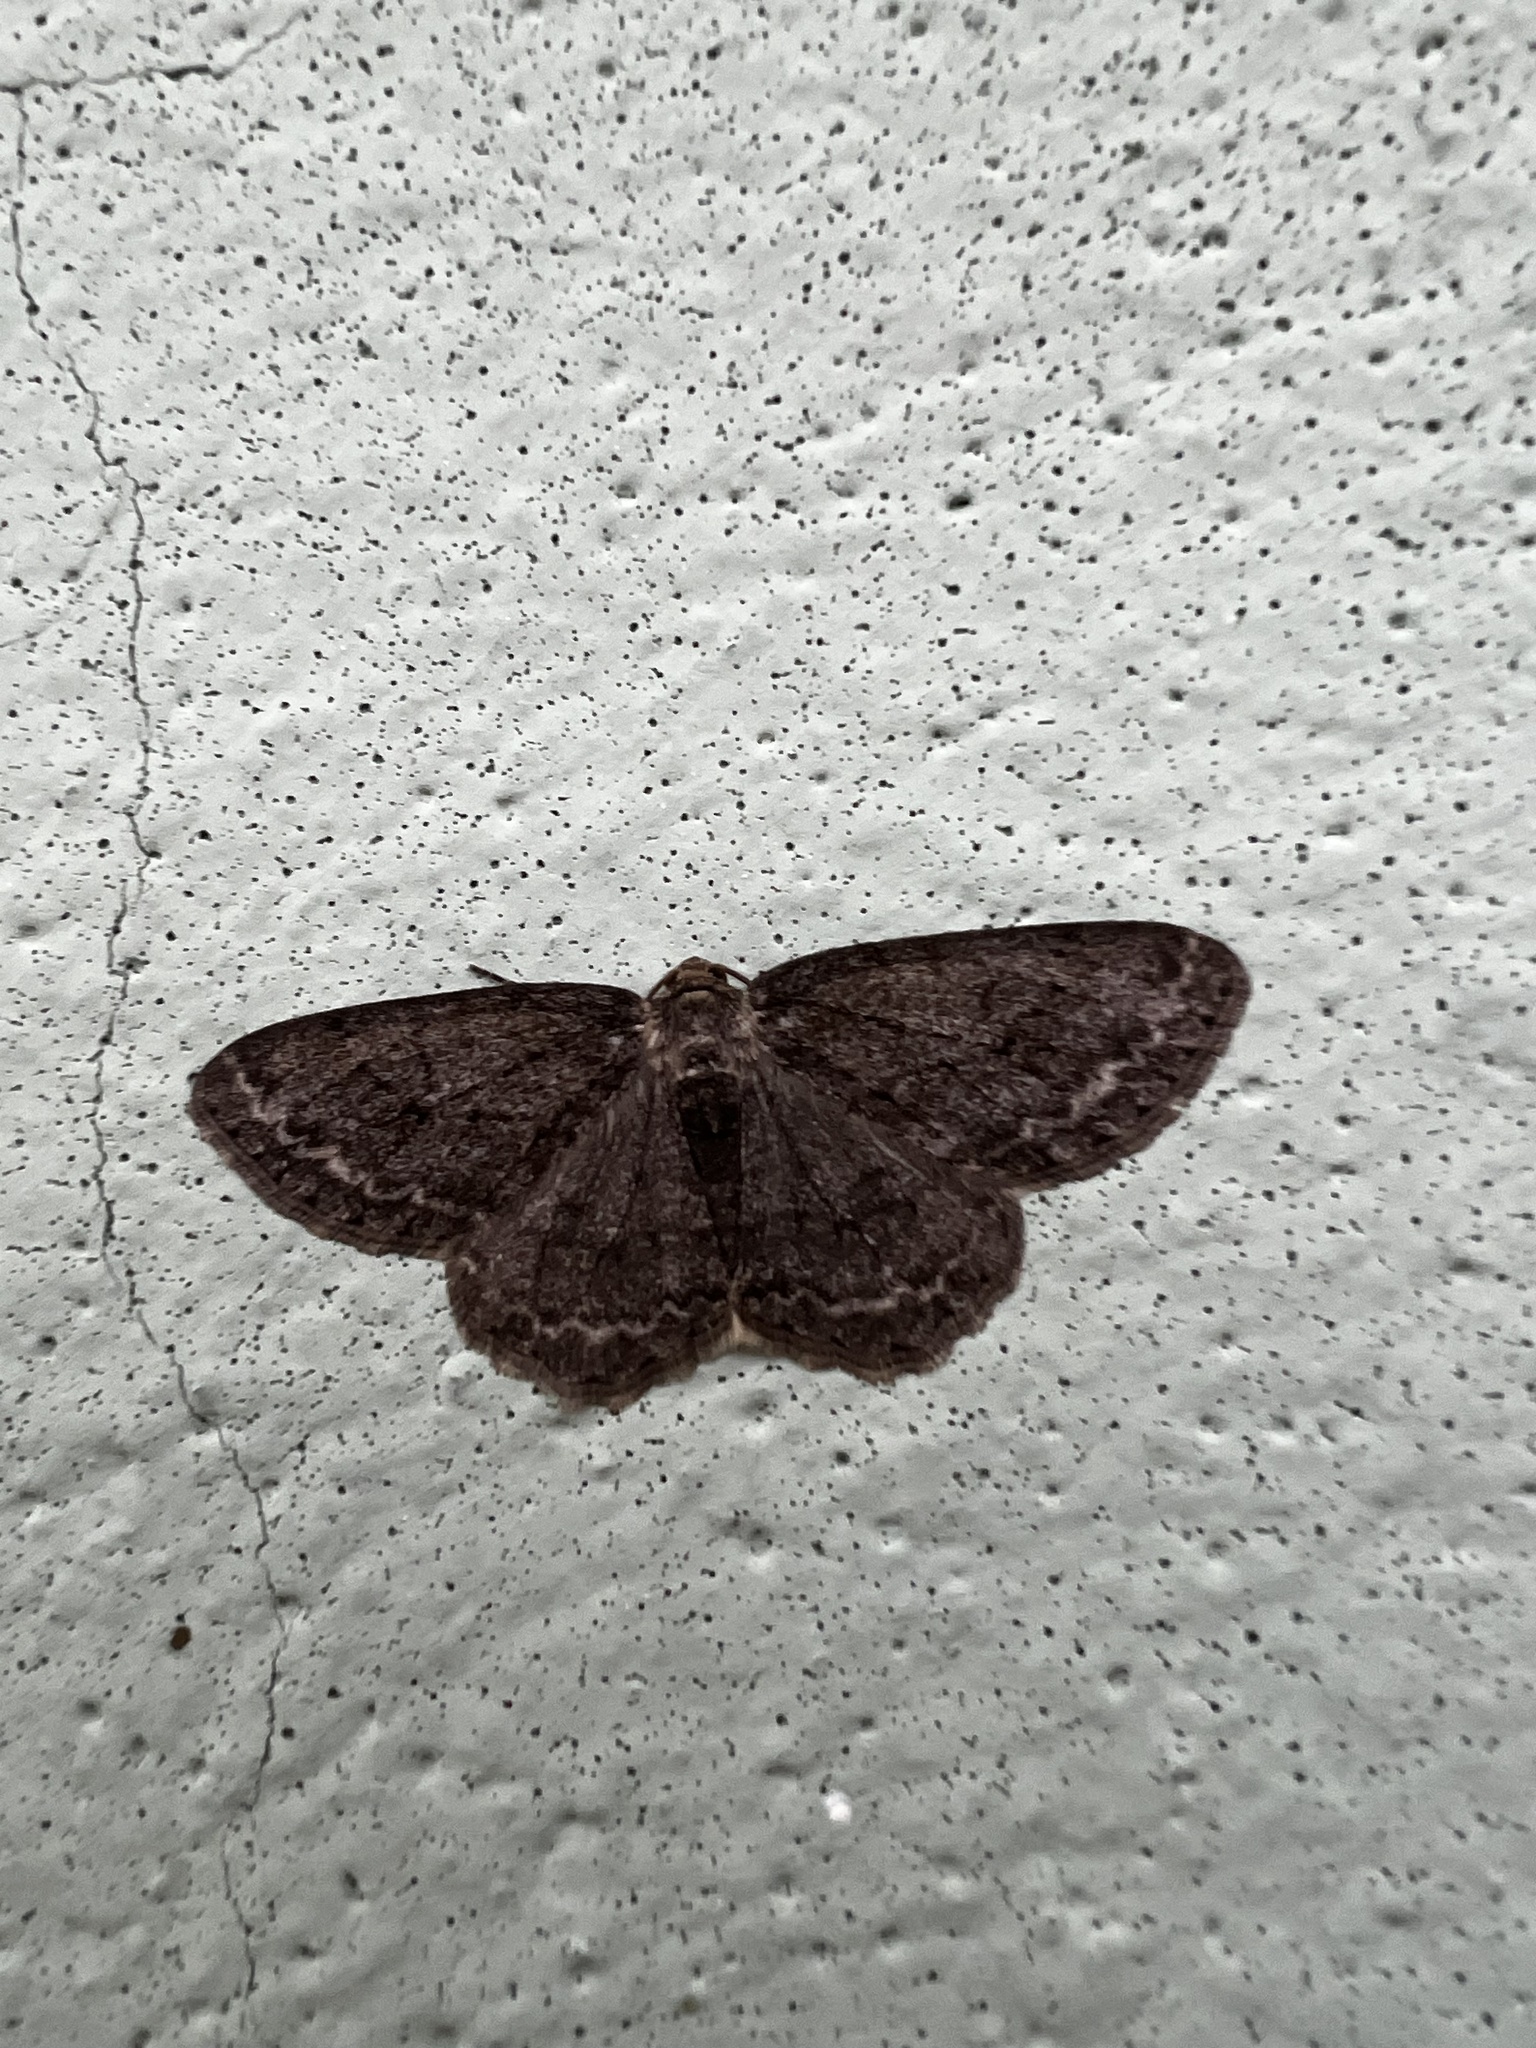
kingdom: Animalia
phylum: Arthropoda
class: Insecta
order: Lepidoptera
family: Geometridae
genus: Ectropis
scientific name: Ectropis crepuscularia
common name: Engrailed
